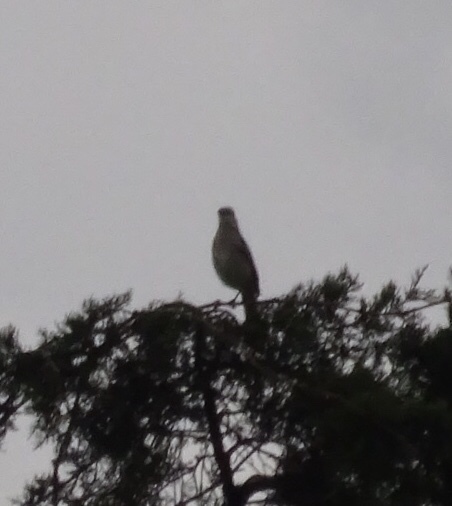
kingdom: Animalia
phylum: Chordata
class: Aves
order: Passeriformes
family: Mimidae
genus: Mimus
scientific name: Mimus polyglottos
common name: Northern mockingbird
